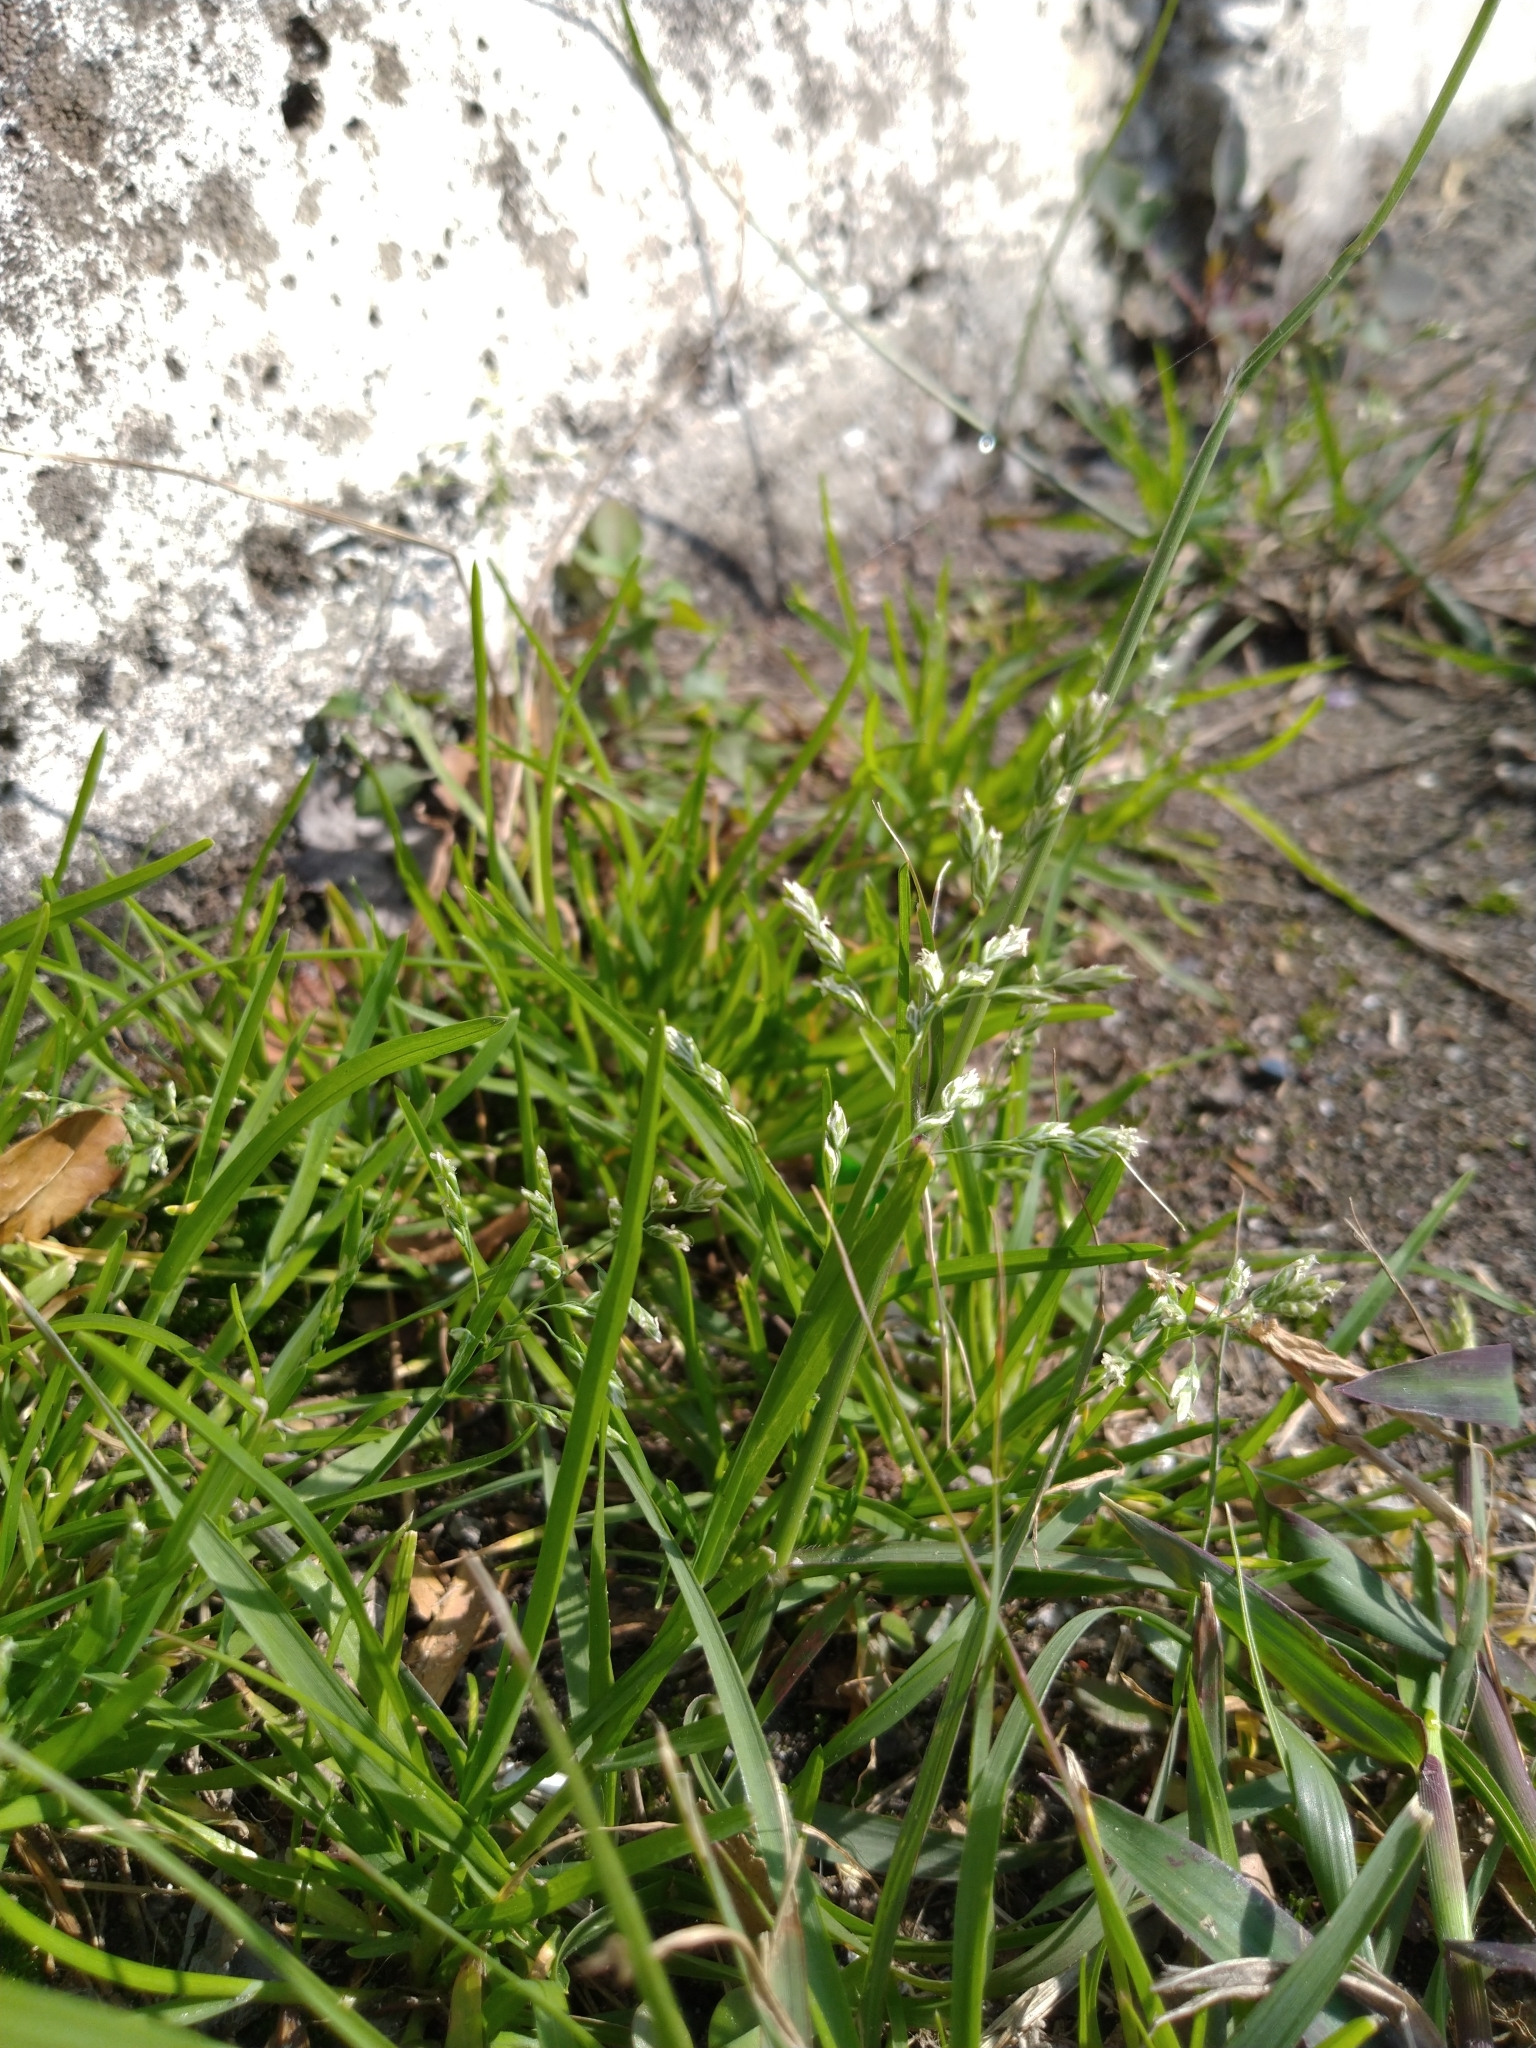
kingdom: Plantae
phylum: Tracheophyta
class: Liliopsida
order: Poales
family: Poaceae
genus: Poa
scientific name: Poa annua
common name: Annual bluegrass
